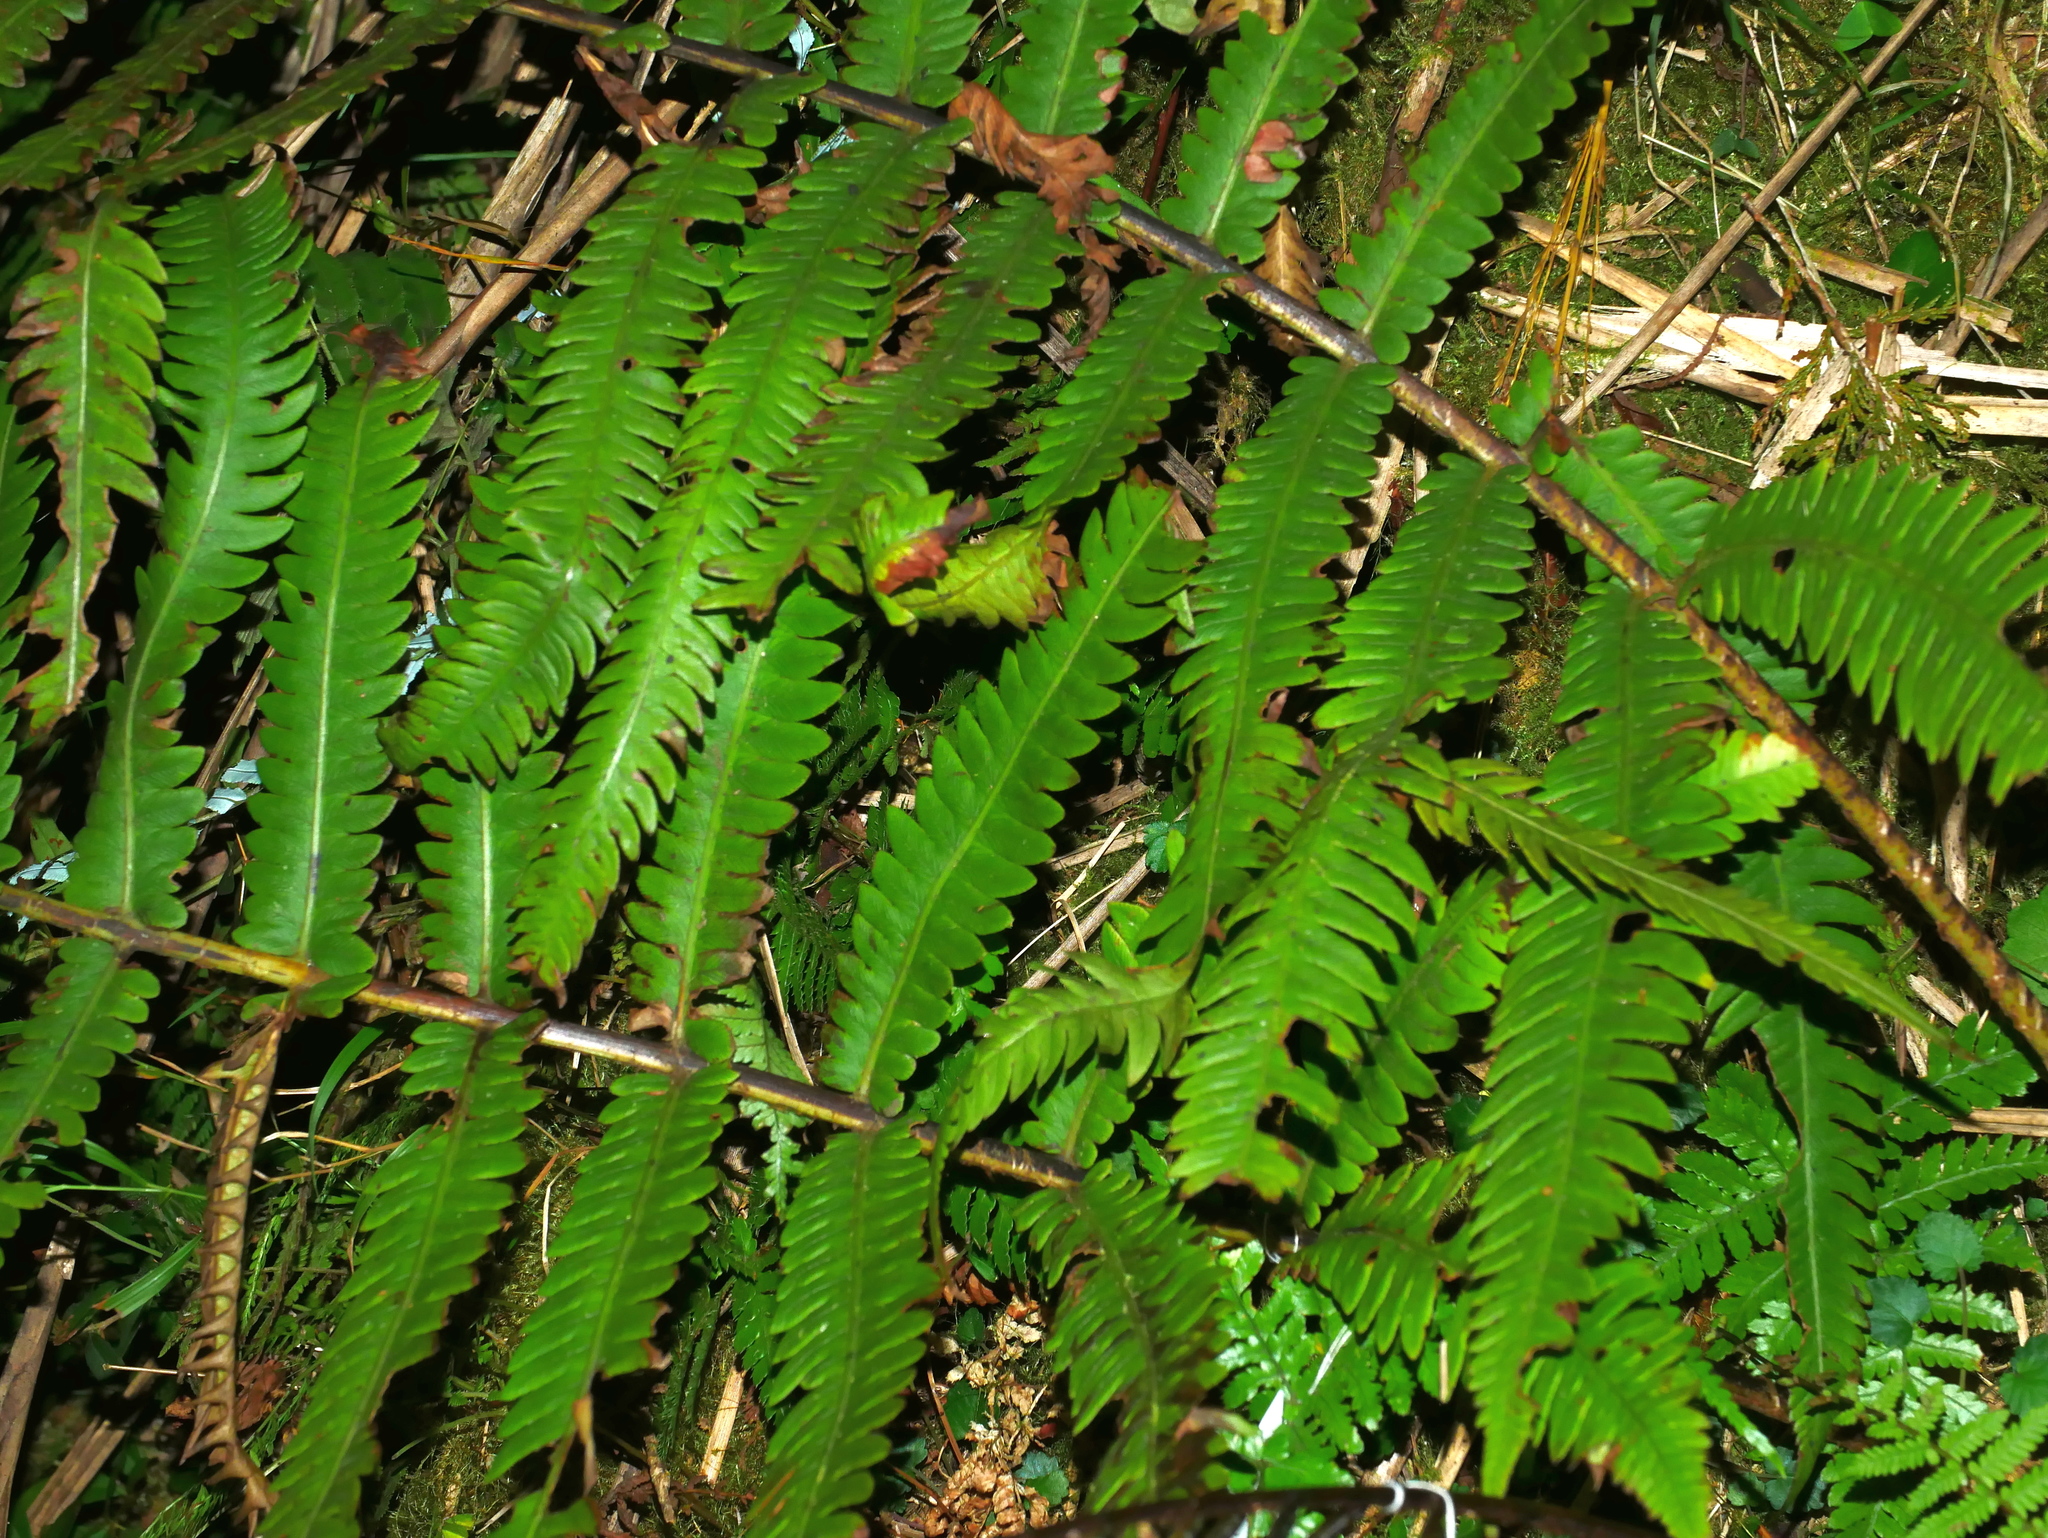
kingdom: Plantae
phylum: Tracheophyta
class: Polypodiopsida
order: Polypodiales
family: Onocleaceae
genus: Pentarhizidium
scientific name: Pentarhizidium orientale
